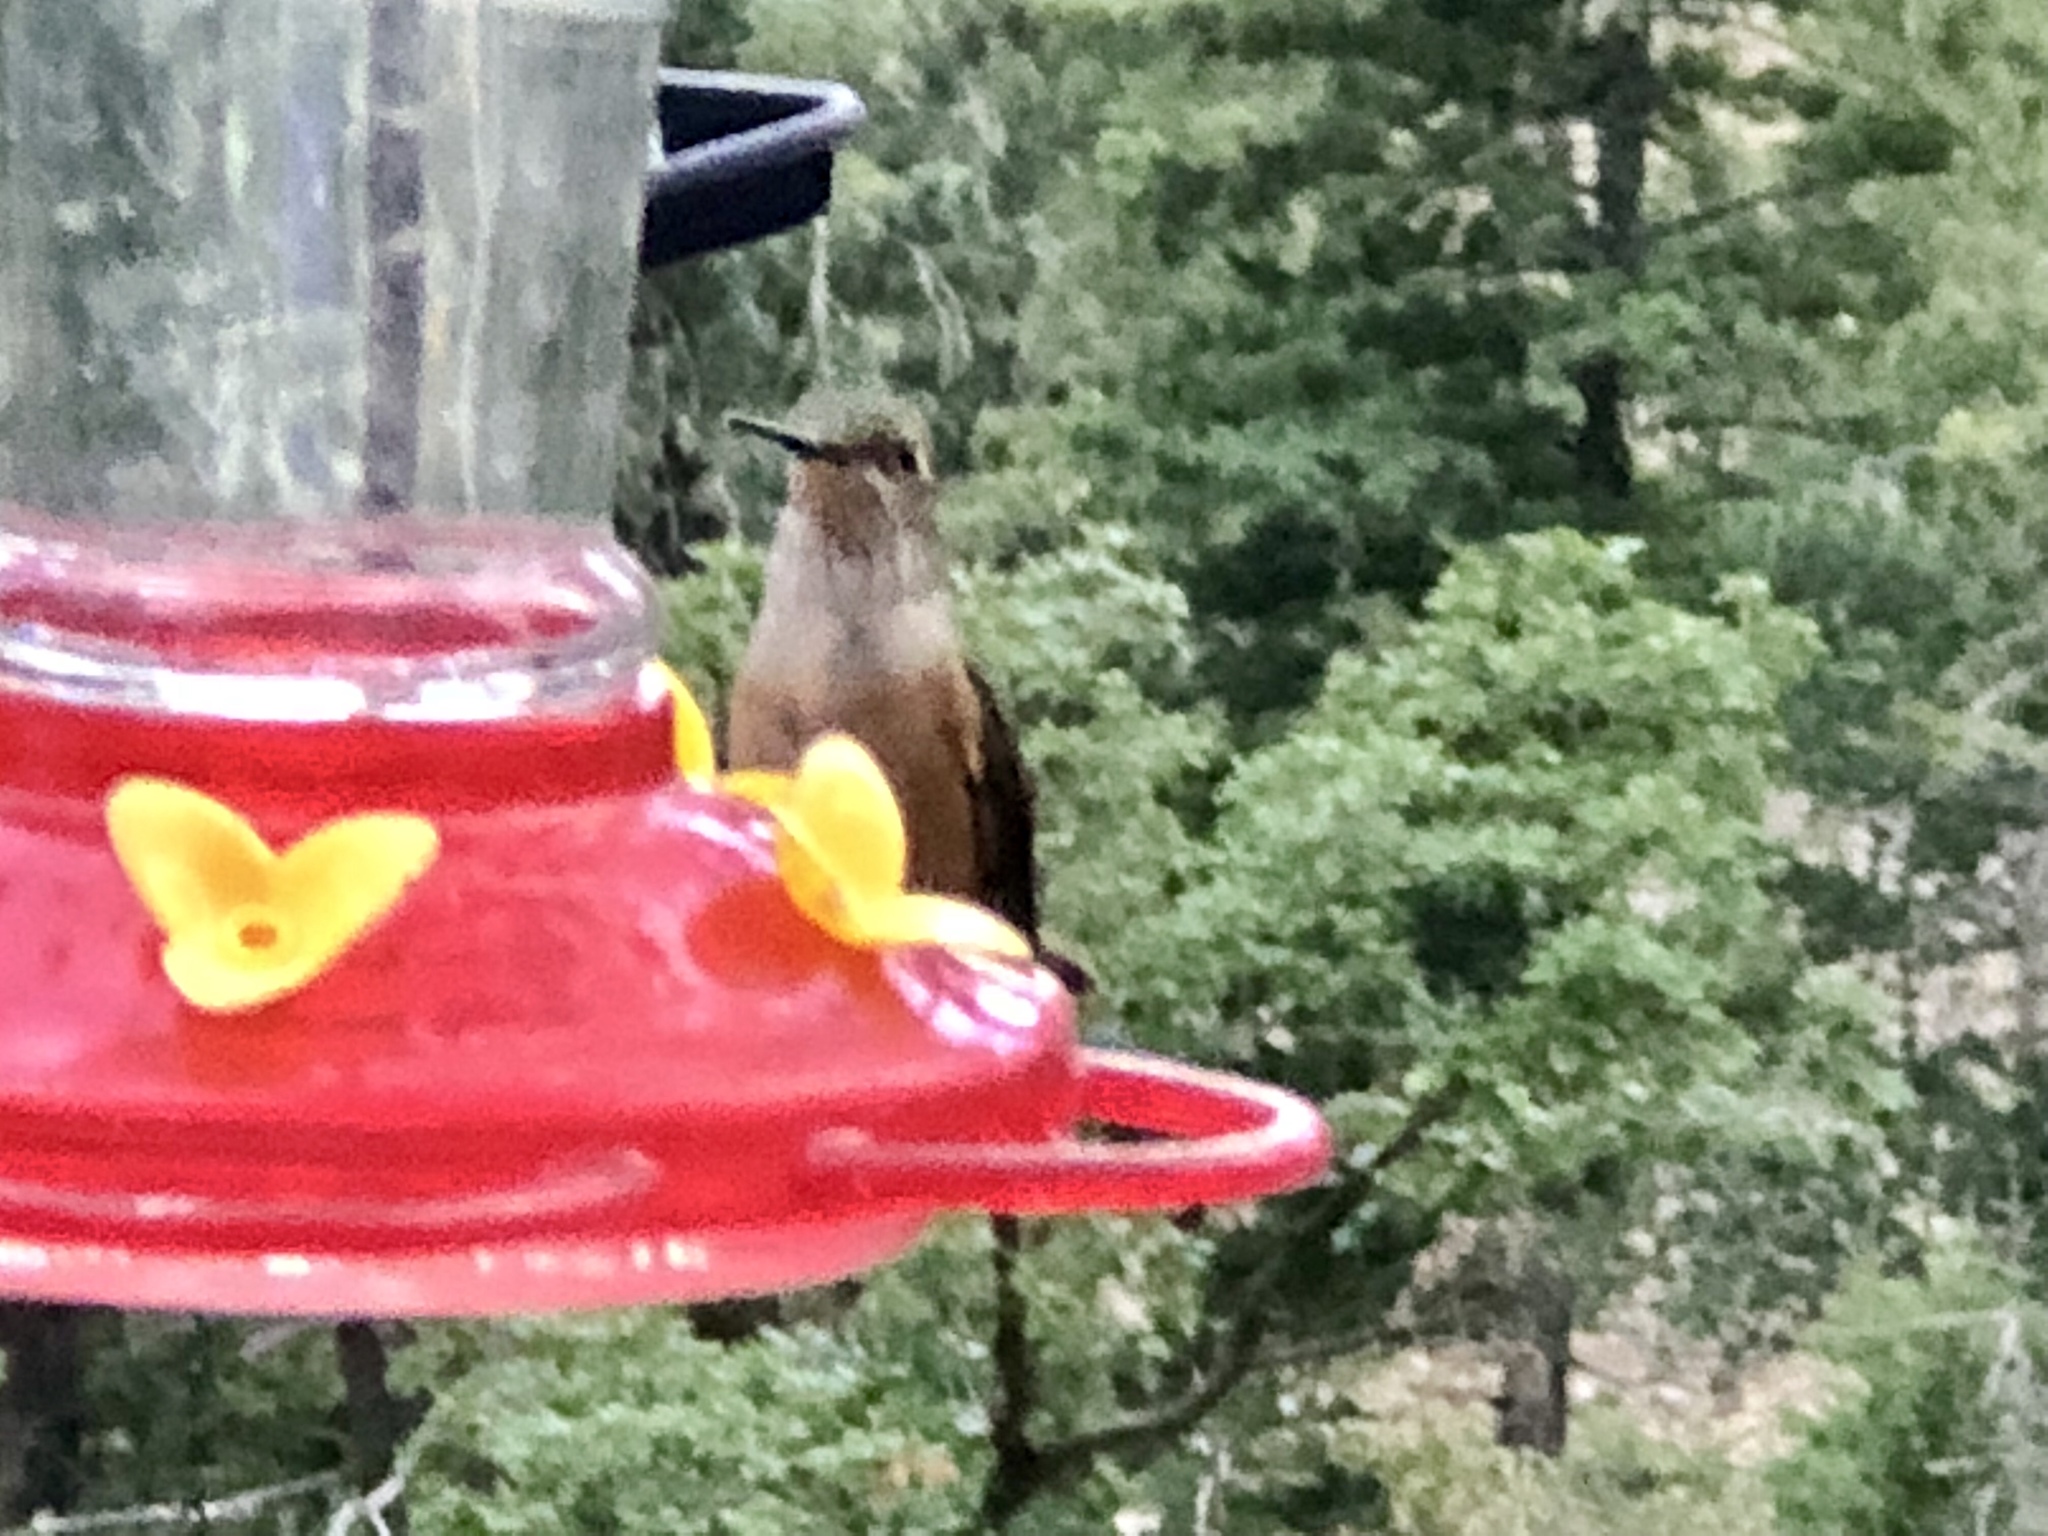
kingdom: Animalia
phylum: Chordata
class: Aves
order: Apodiformes
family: Trochilidae
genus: Selasphorus
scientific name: Selasphorus platycercus
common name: Broad-tailed hummingbird
